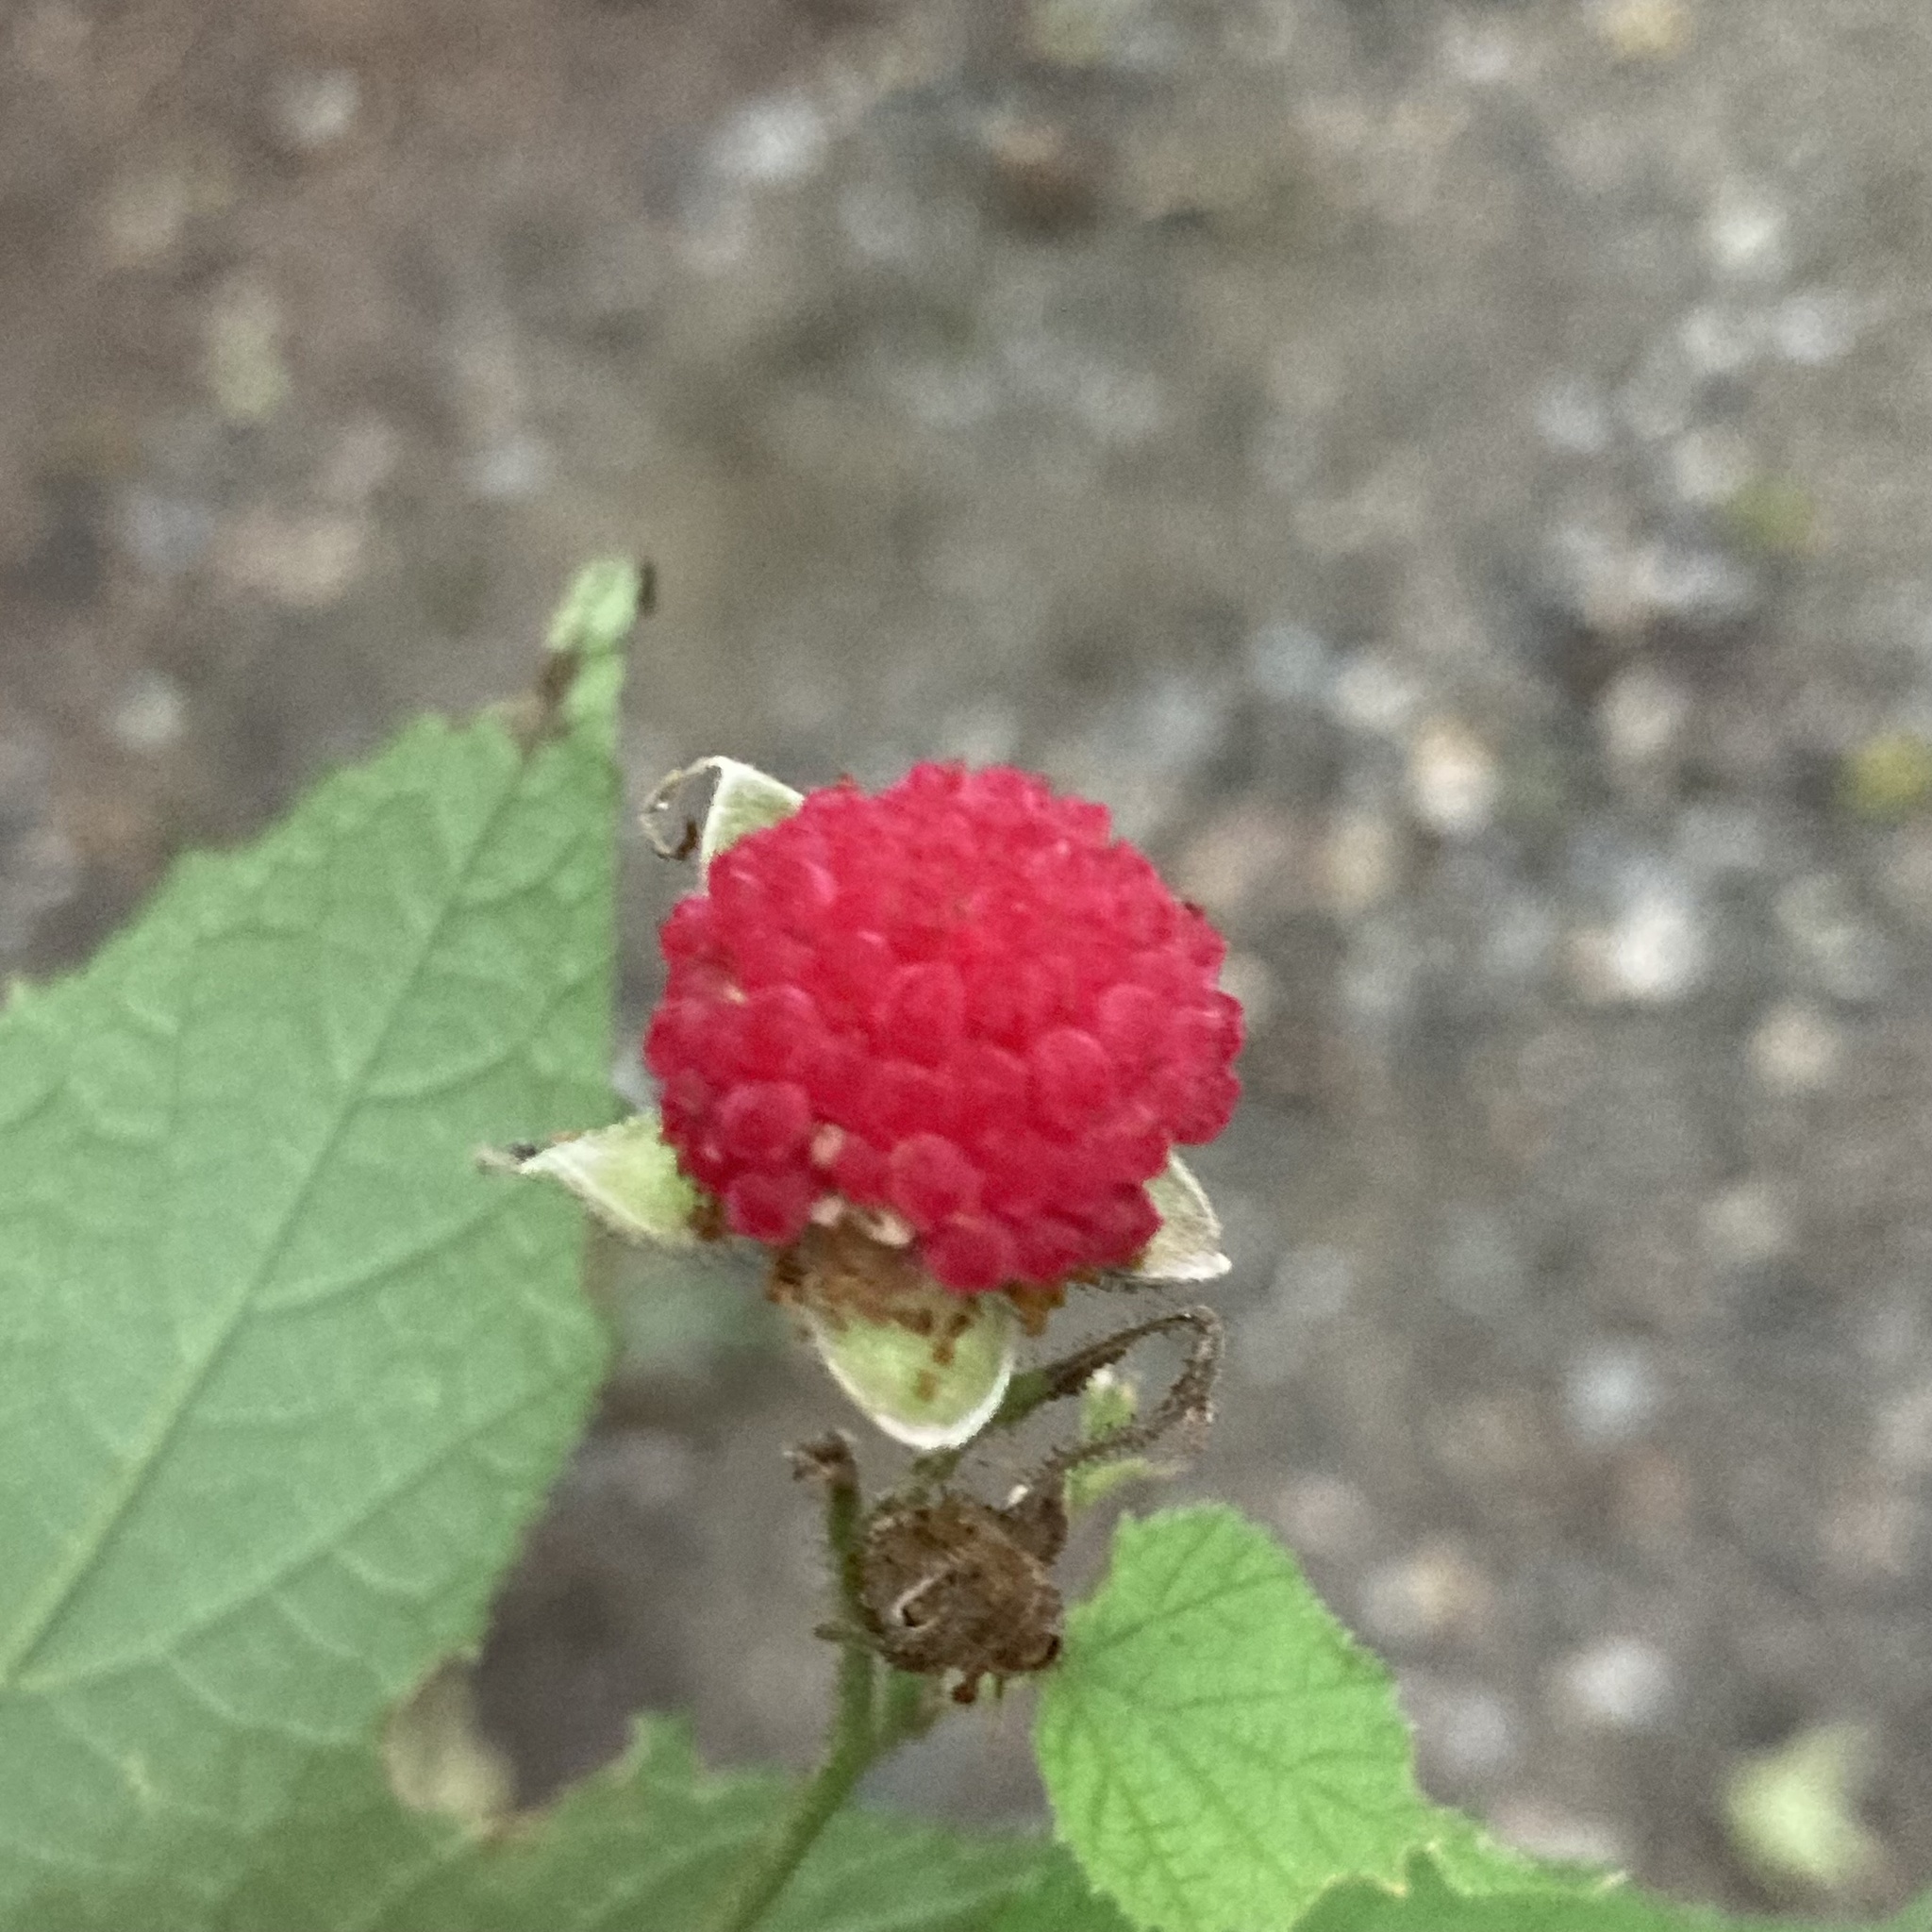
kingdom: Plantae
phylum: Tracheophyta
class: Magnoliopsida
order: Rosales
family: Rosaceae
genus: Rubus
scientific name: Rubus odoratus
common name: Purple-flowered raspberry
